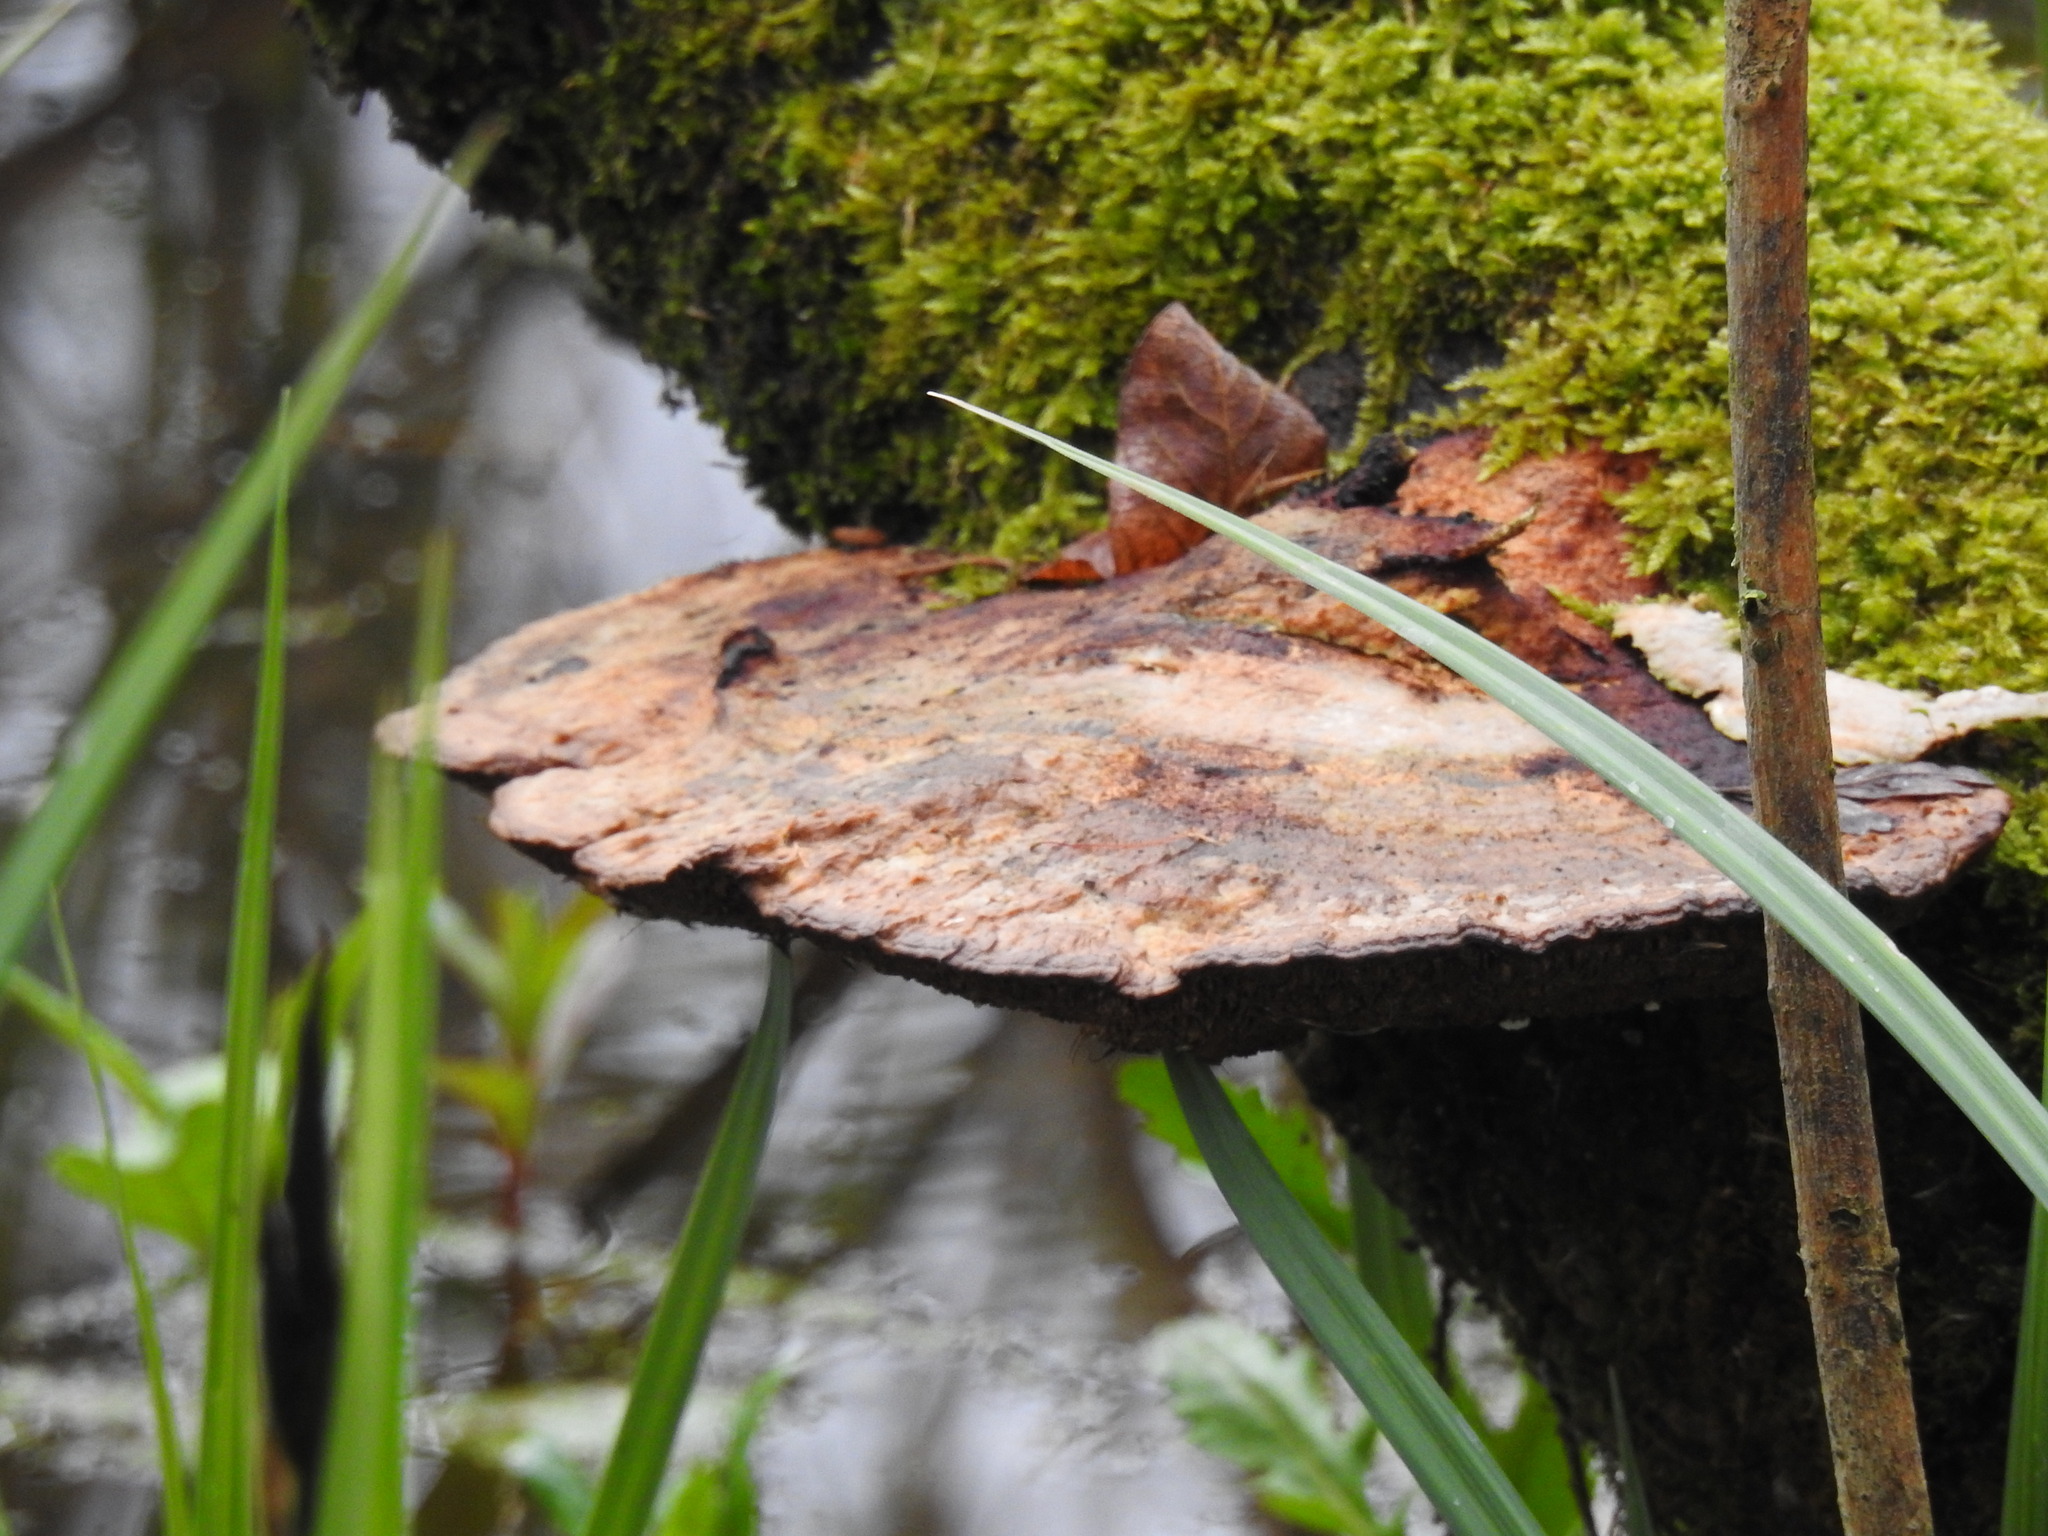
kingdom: Fungi
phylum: Basidiomycota
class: Agaricomycetes
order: Polyporales
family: Polyporaceae
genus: Podofomes
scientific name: Podofomes mollis
